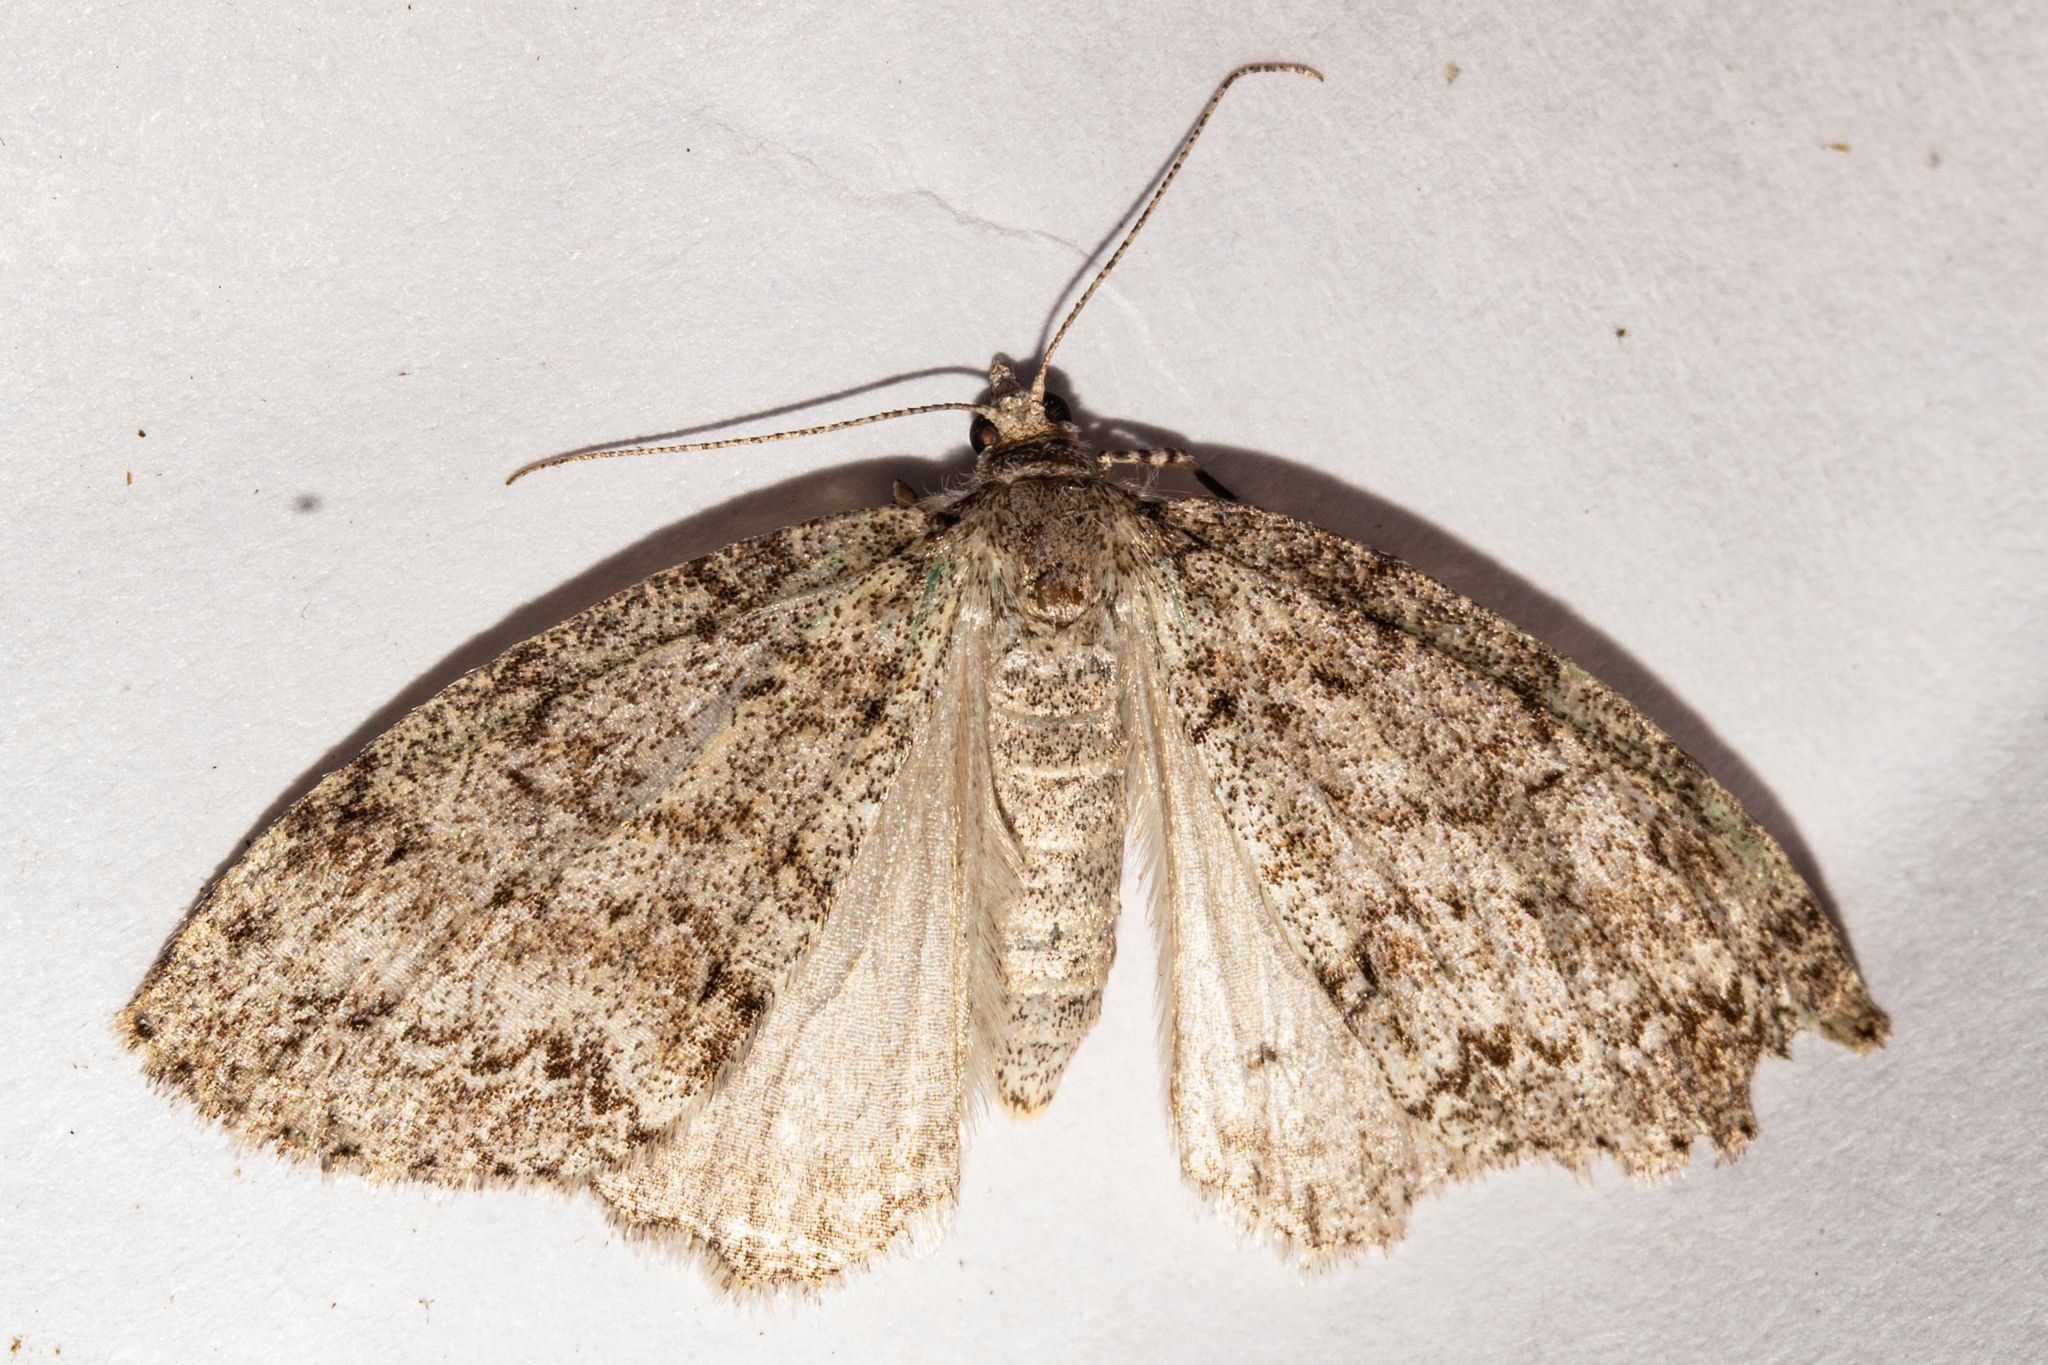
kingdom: Animalia
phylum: Arthropoda
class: Insecta
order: Lepidoptera
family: Geometridae
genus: Pseudocoremia
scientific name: Pseudocoremia fenerata
